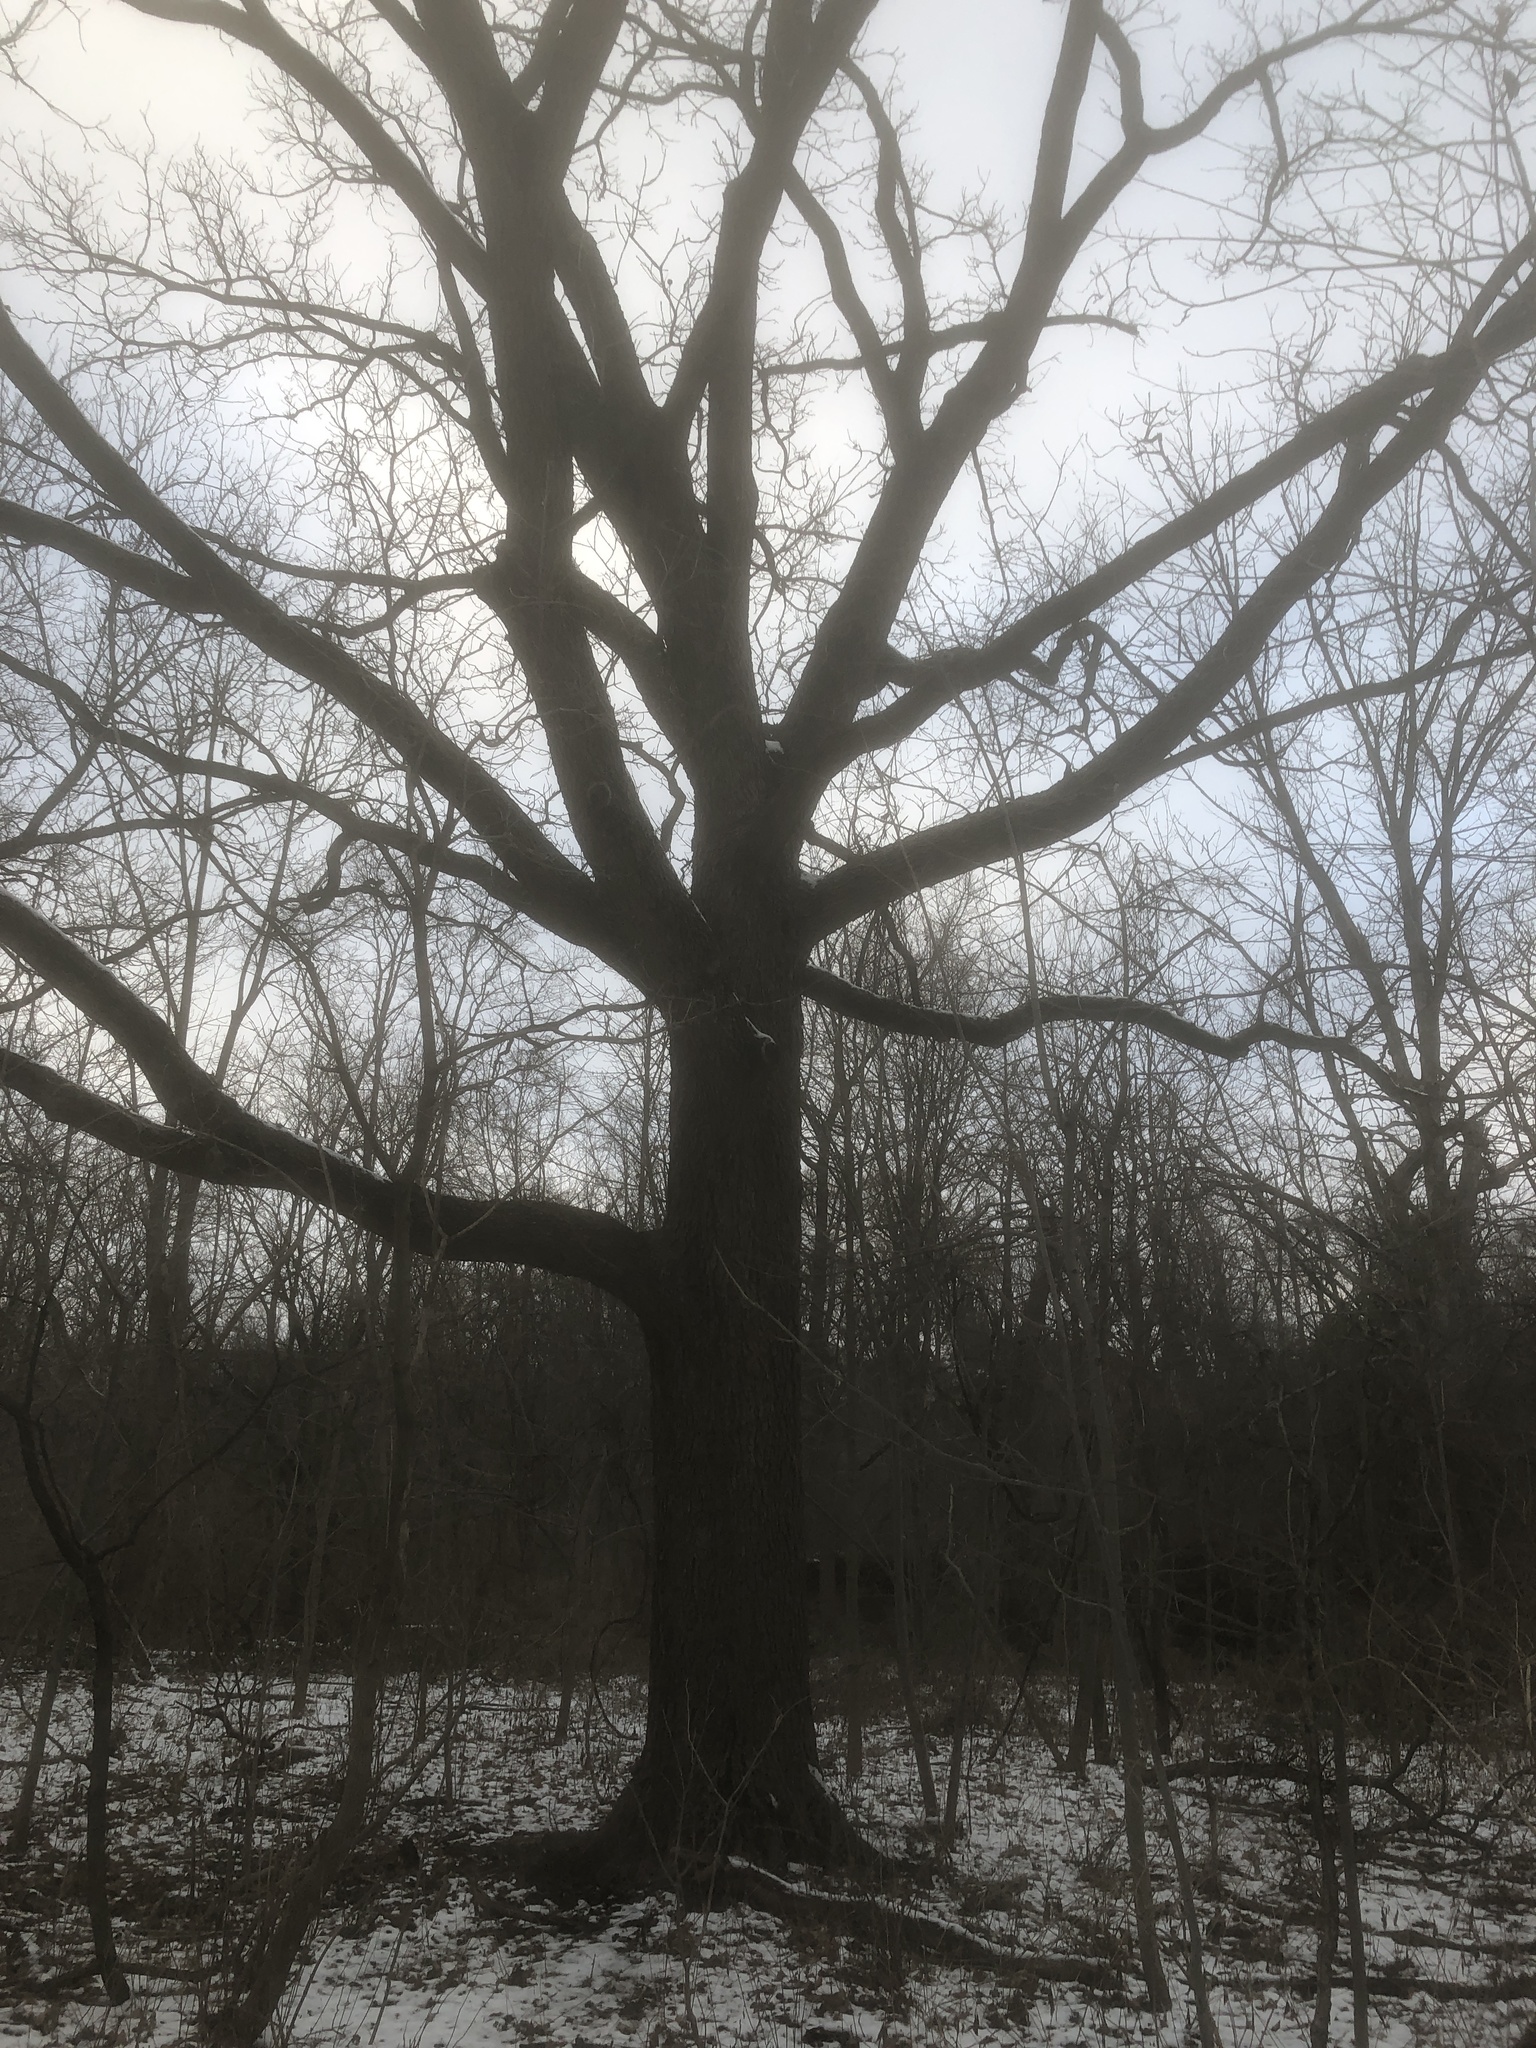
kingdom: Plantae
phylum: Tracheophyta
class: Magnoliopsida
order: Fagales
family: Juglandaceae
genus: Juglans
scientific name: Juglans nigra
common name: Black walnut
